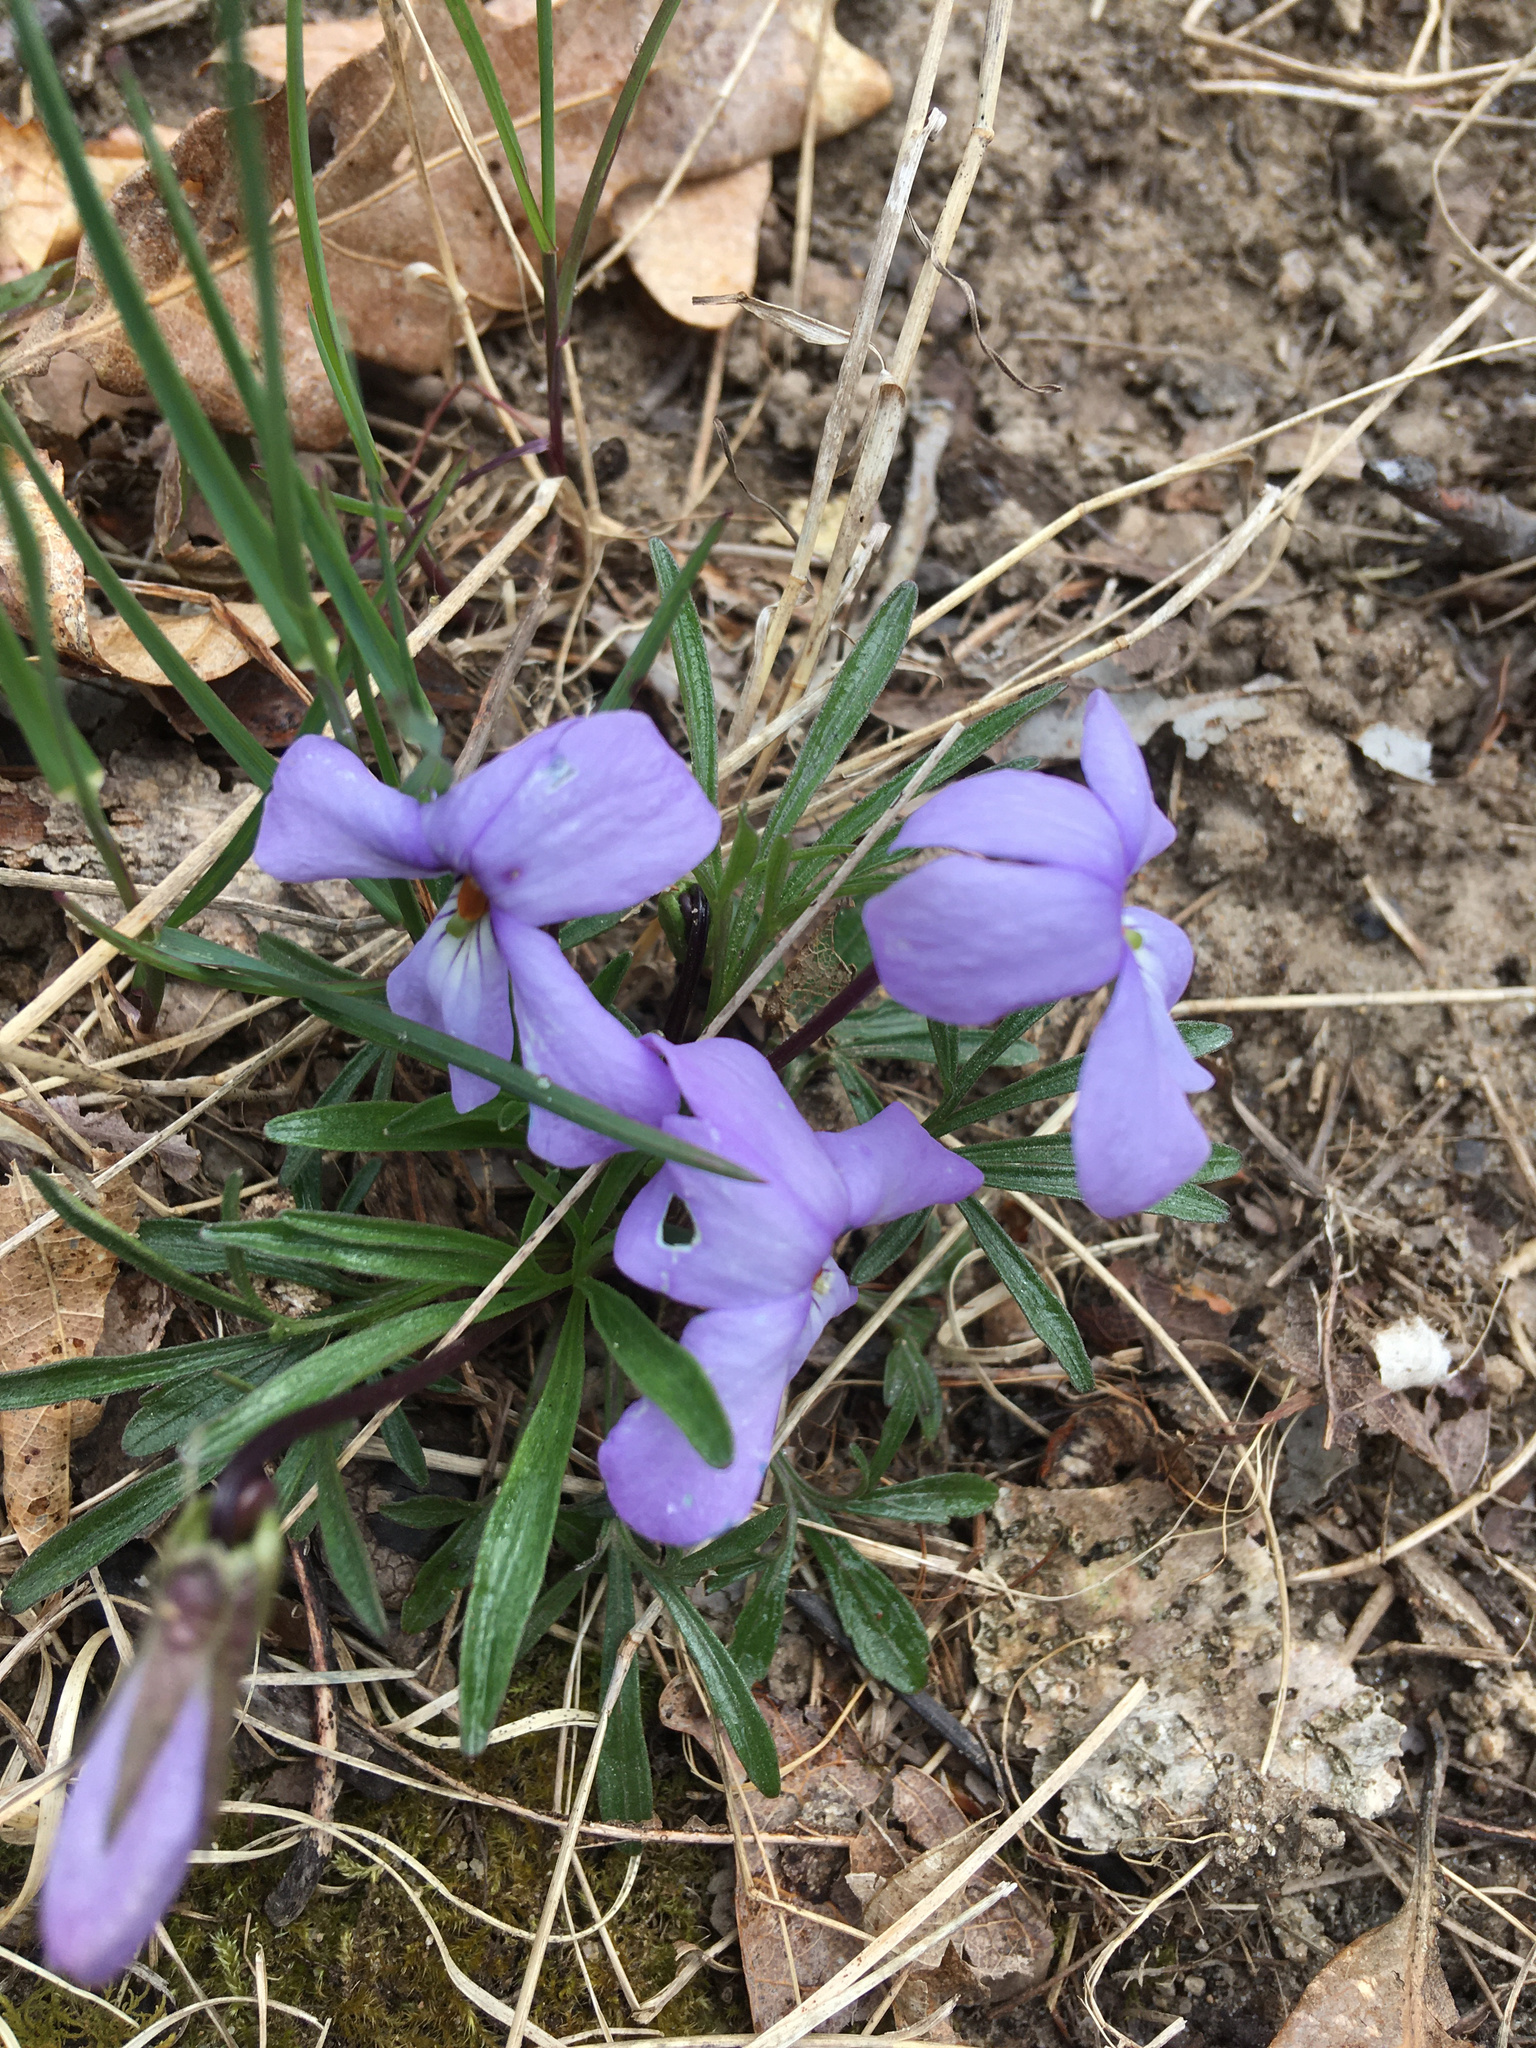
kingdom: Plantae
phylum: Tracheophyta
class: Magnoliopsida
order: Malpighiales
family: Violaceae
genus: Viola
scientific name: Viola pedata
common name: Pansy violet
